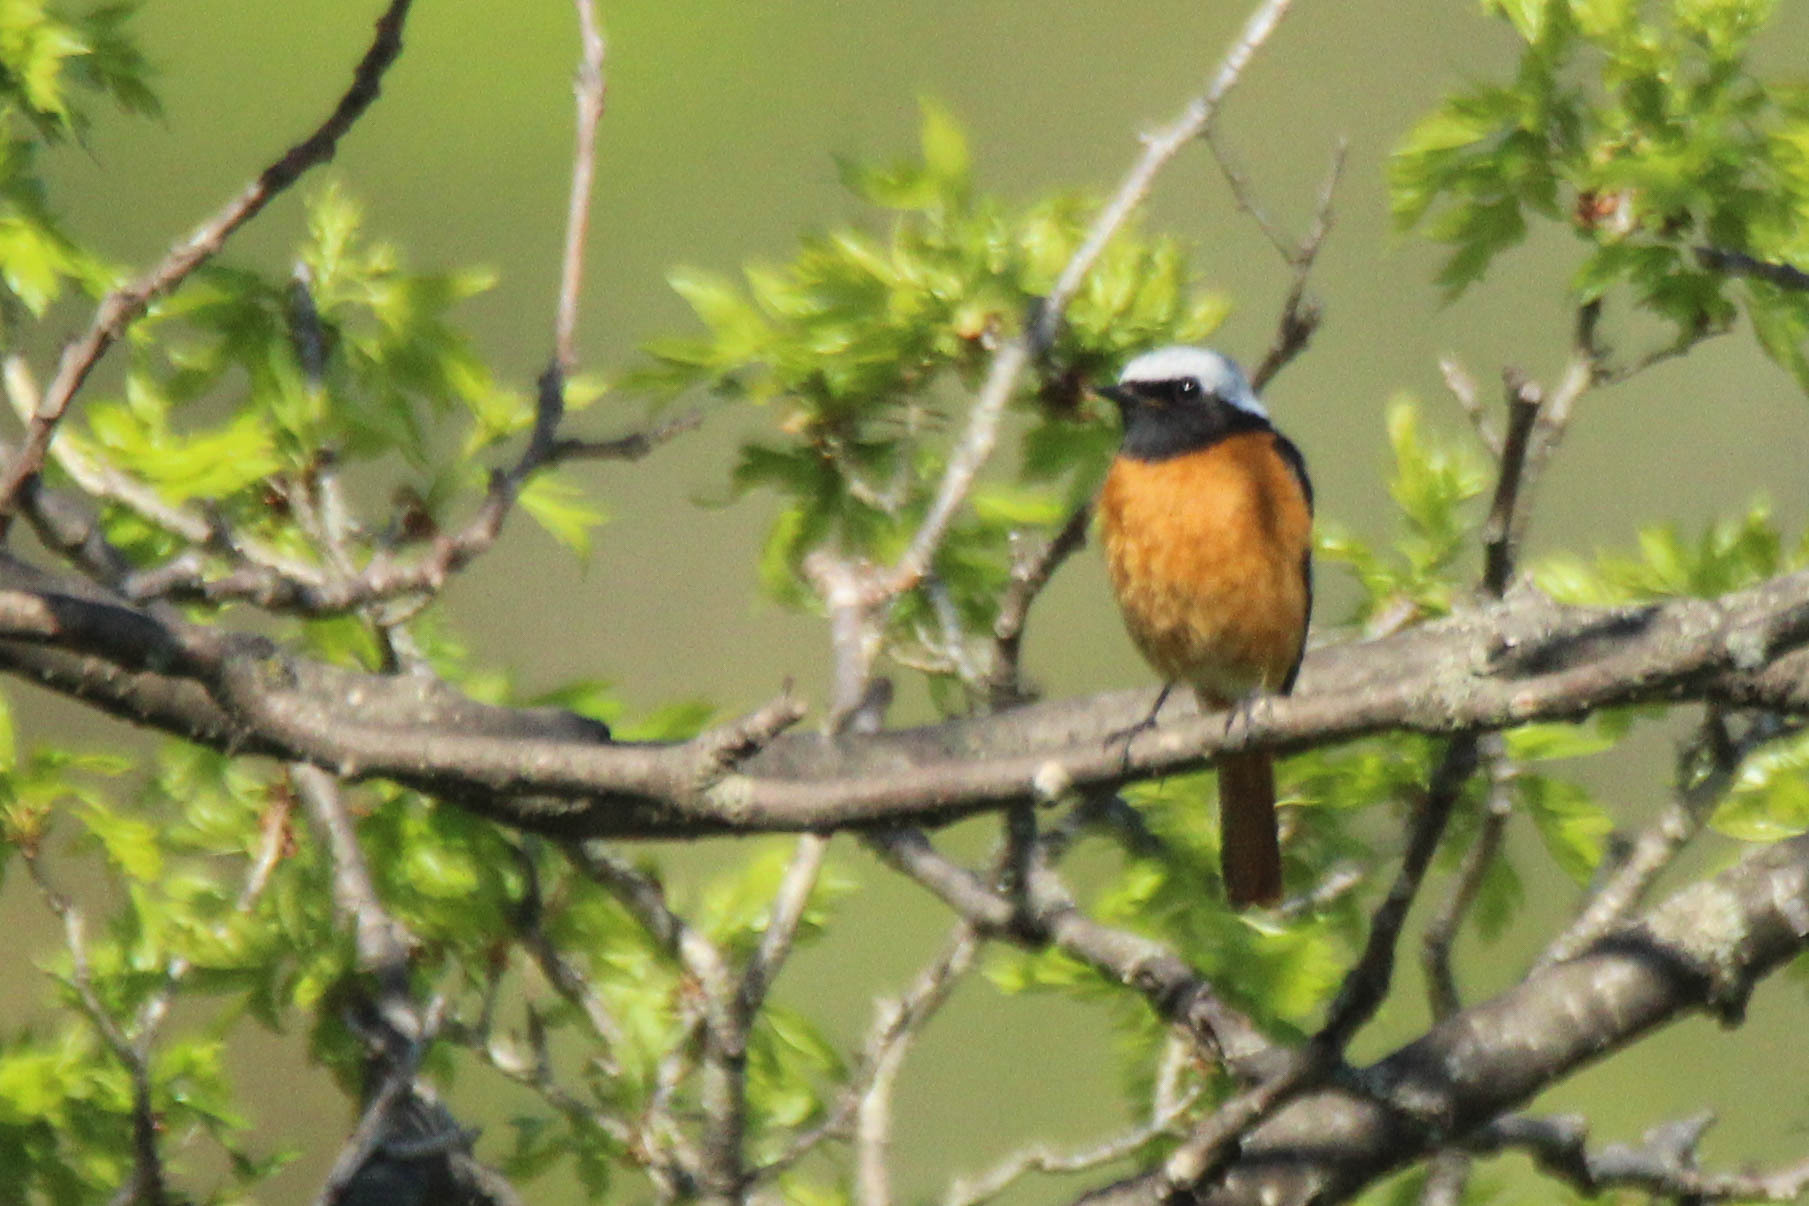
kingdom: Animalia
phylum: Chordata
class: Aves
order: Passeriformes
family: Muscicapidae
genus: Phoenicurus
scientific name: Phoenicurus auroreus
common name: Daurian redstart
